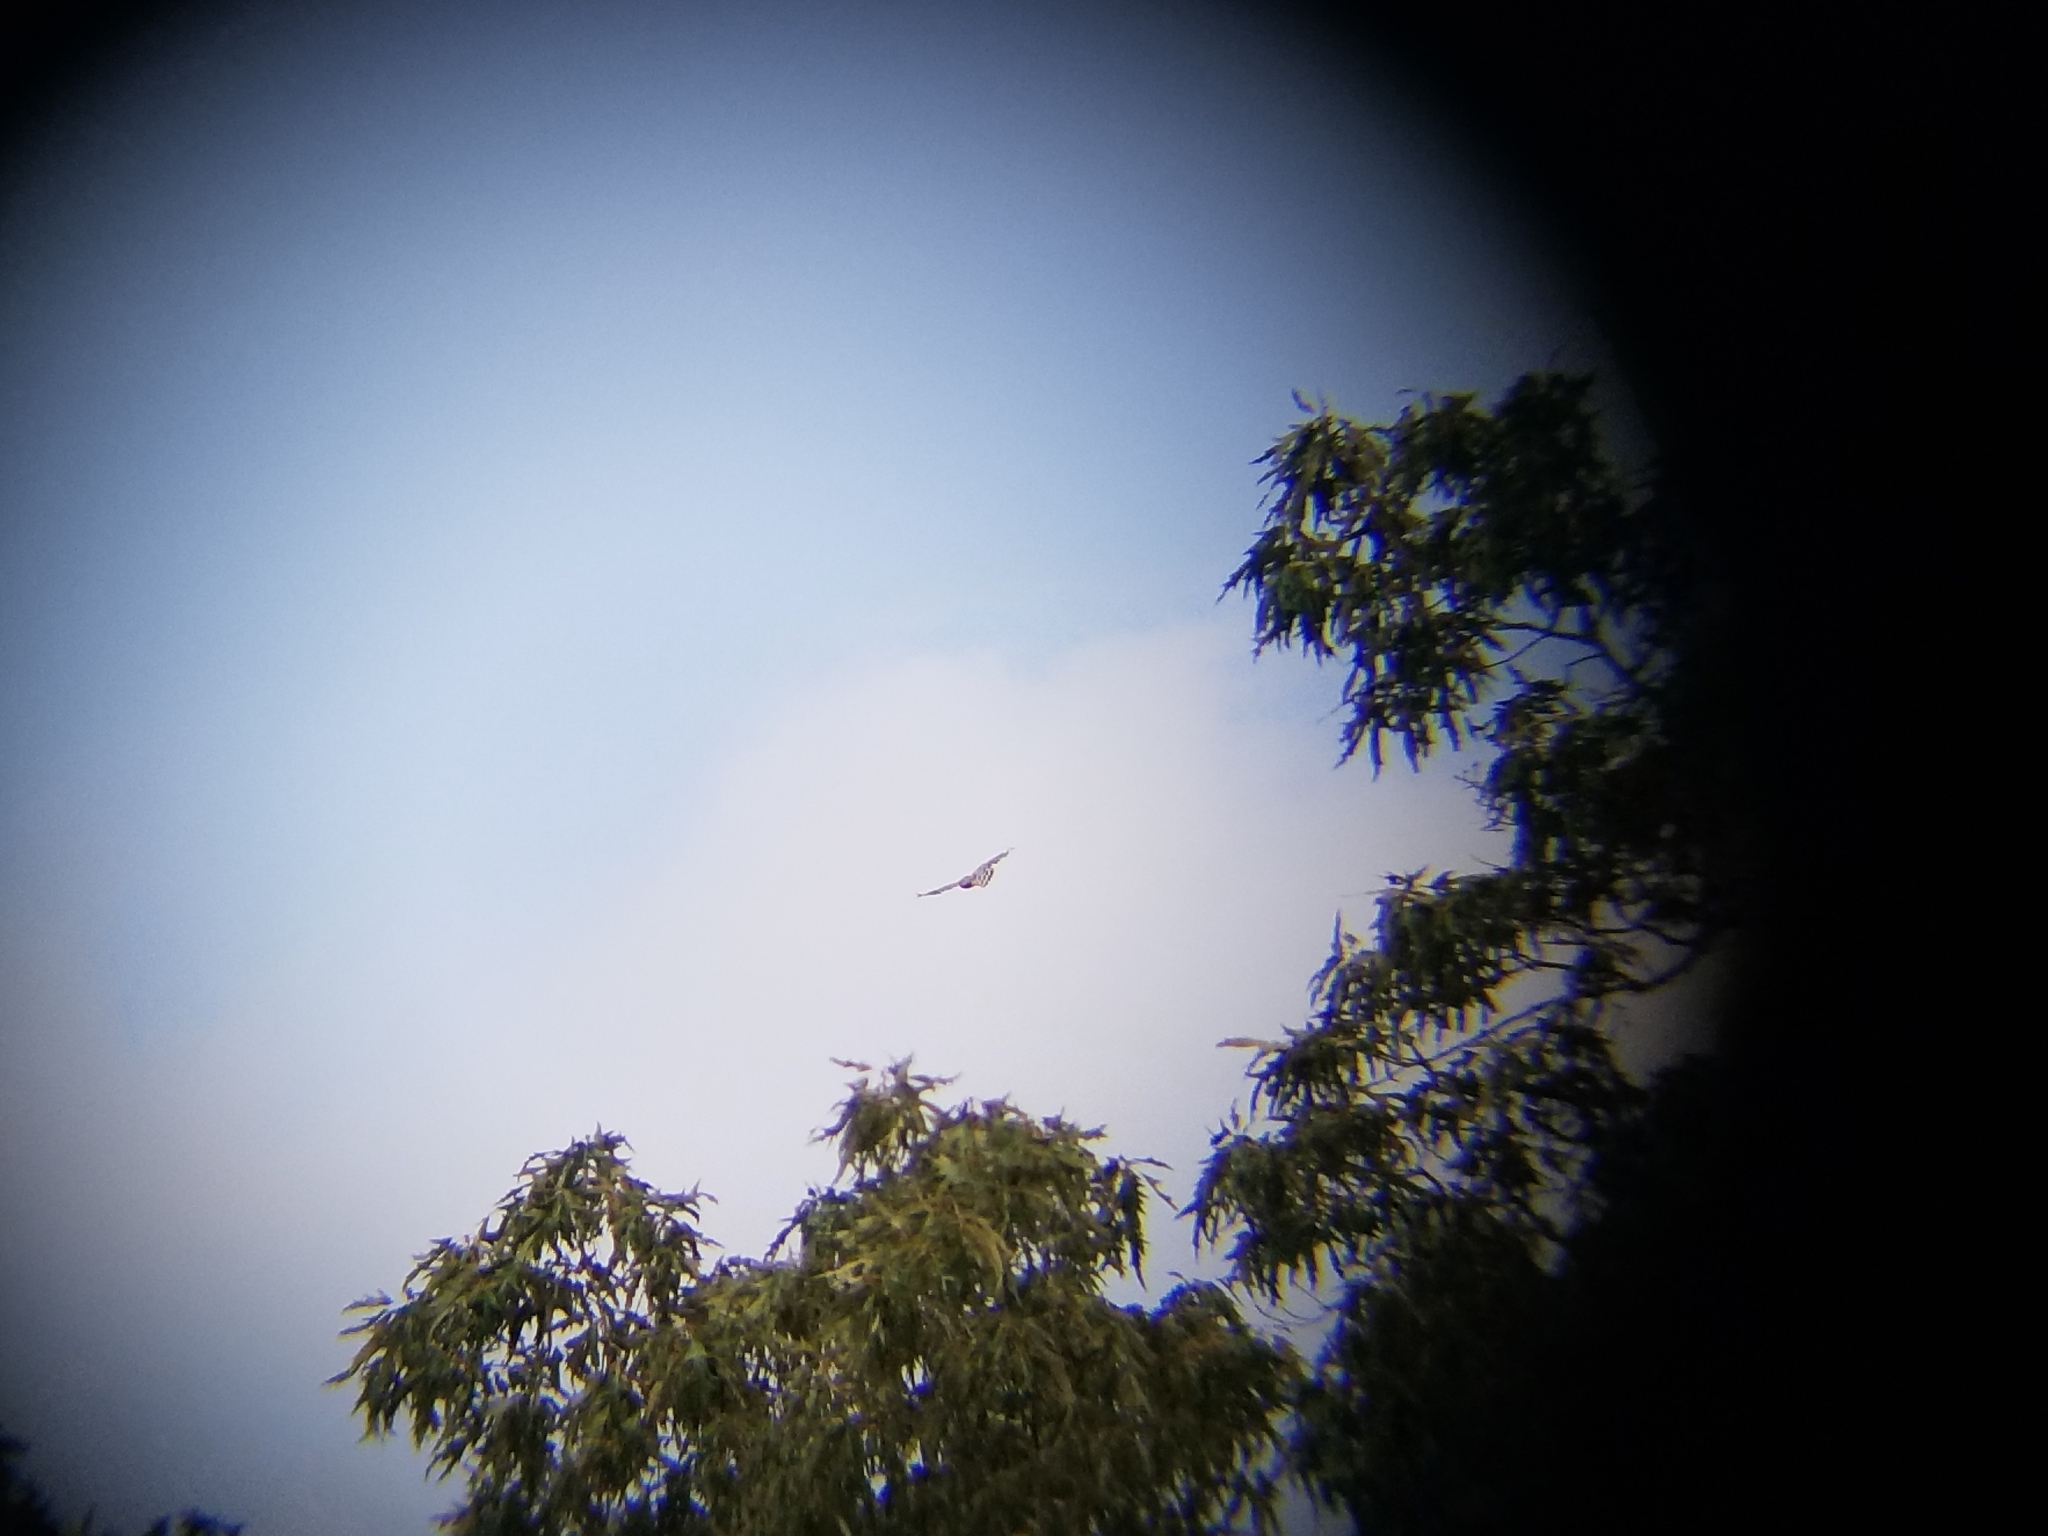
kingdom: Animalia
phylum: Chordata
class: Aves
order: Accipitriformes
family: Accipitridae
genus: Buteo
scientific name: Buteo lineatus
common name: Red-shouldered hawk
